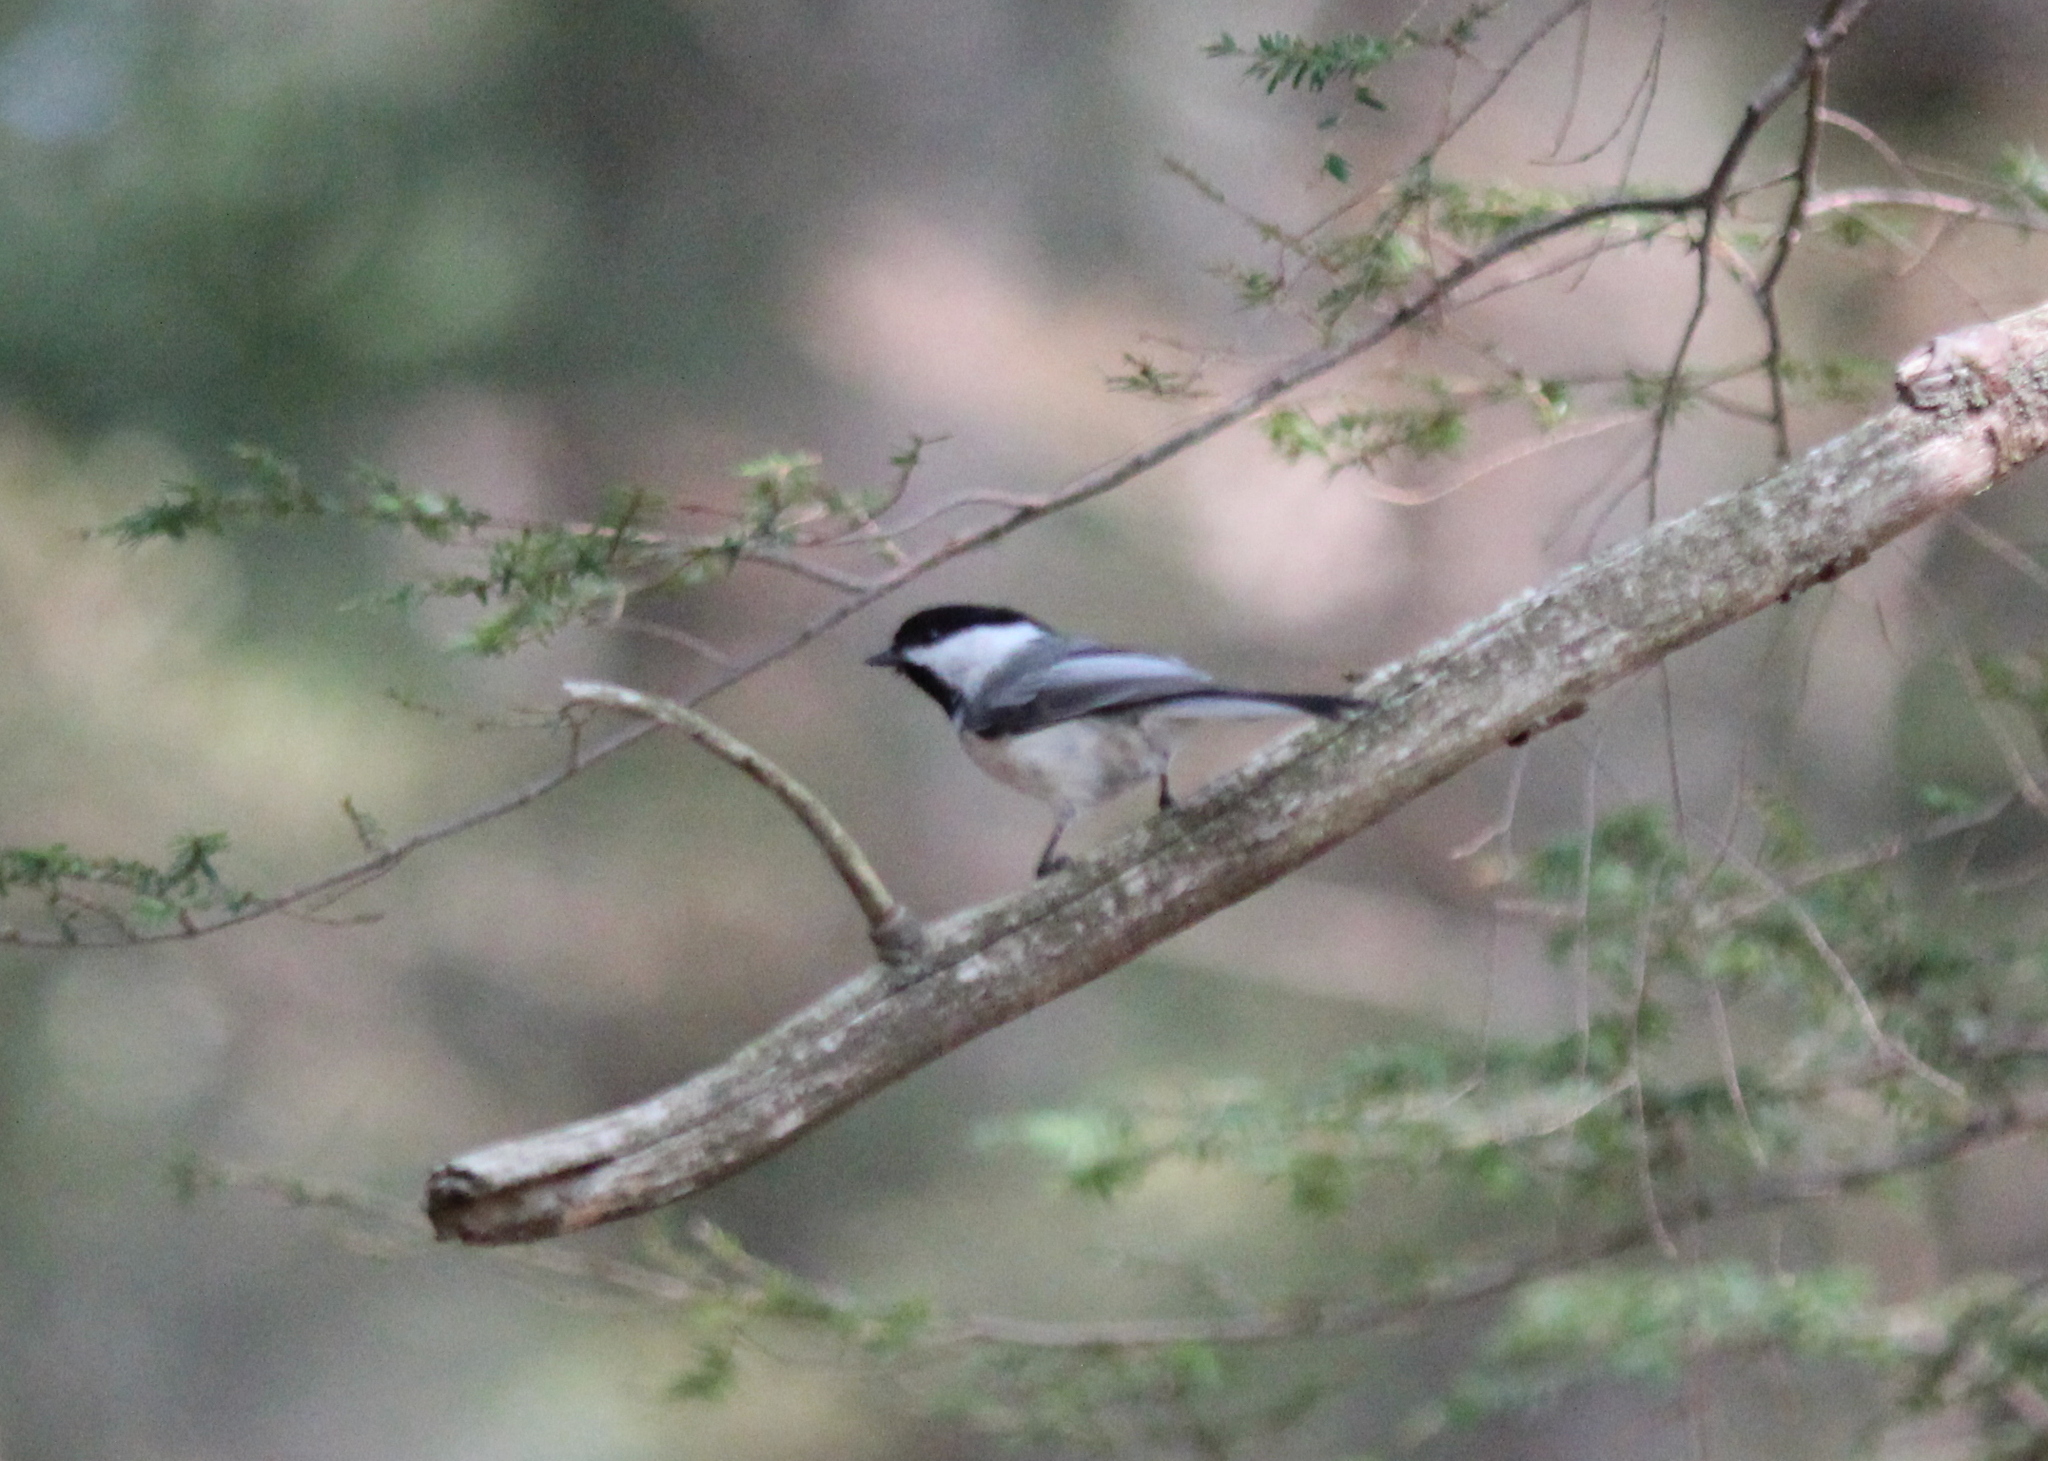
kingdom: Animalia
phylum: Chordata
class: Aves
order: Passeriformes
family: Paridae
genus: Poecile
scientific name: Poecile atricapillus
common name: Black-capped chickadee
